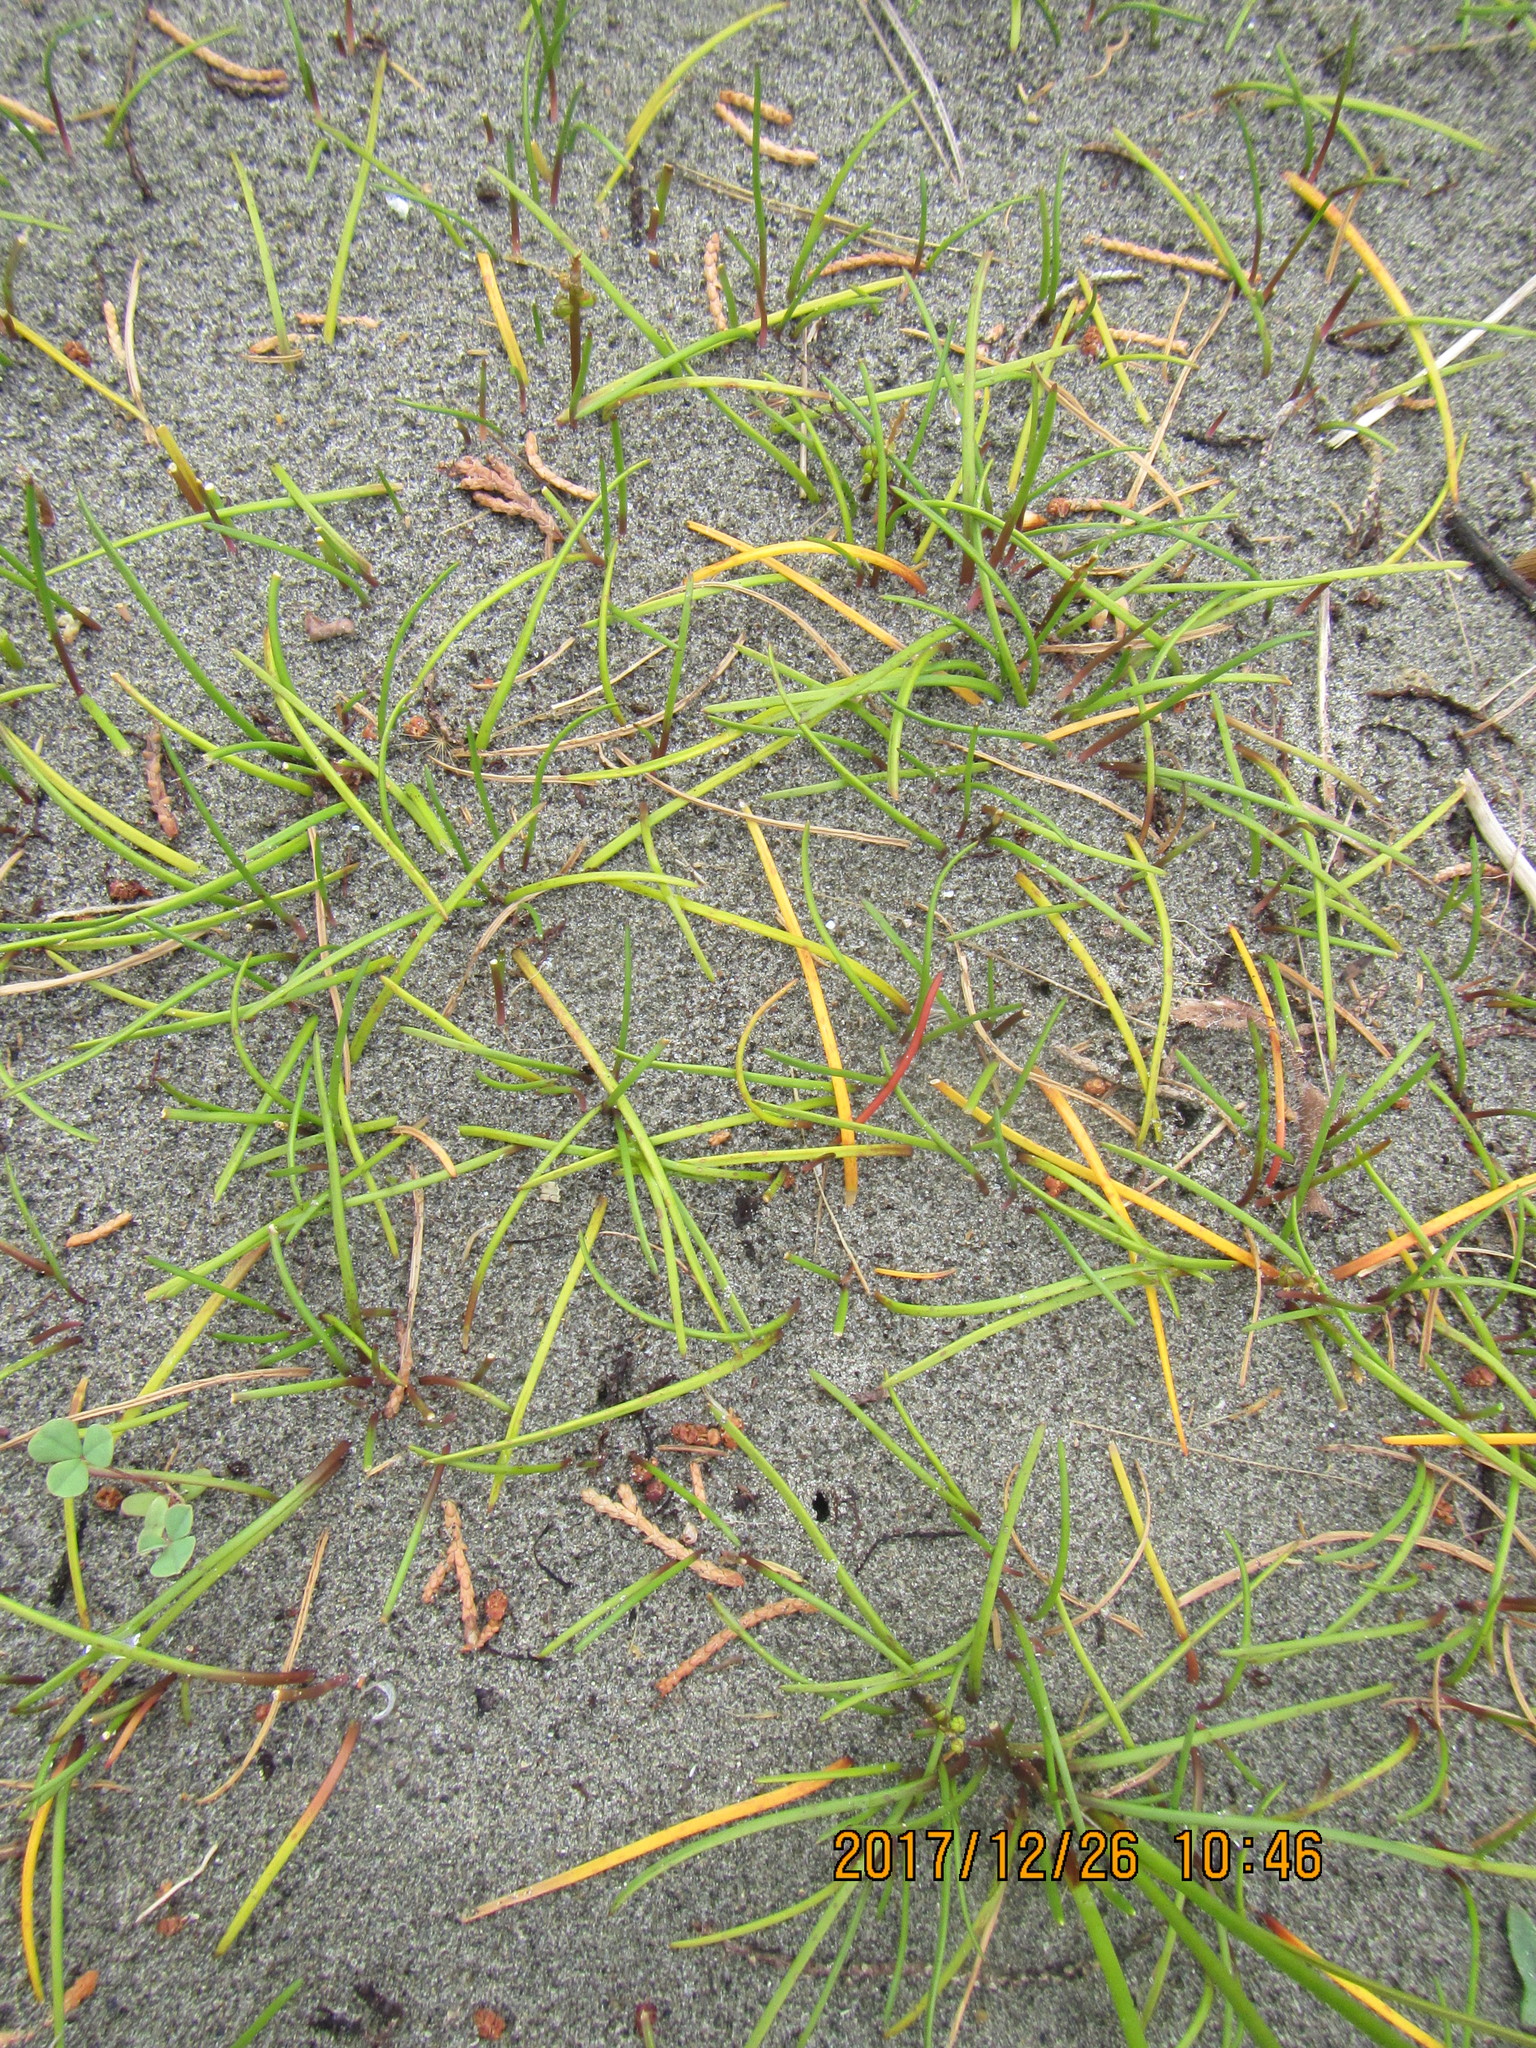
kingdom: Plantae
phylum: Tracheophyta
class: Liliopsida
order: Alismatales
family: Juncaginaceae
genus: Triglochin
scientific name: Triglochin striata
